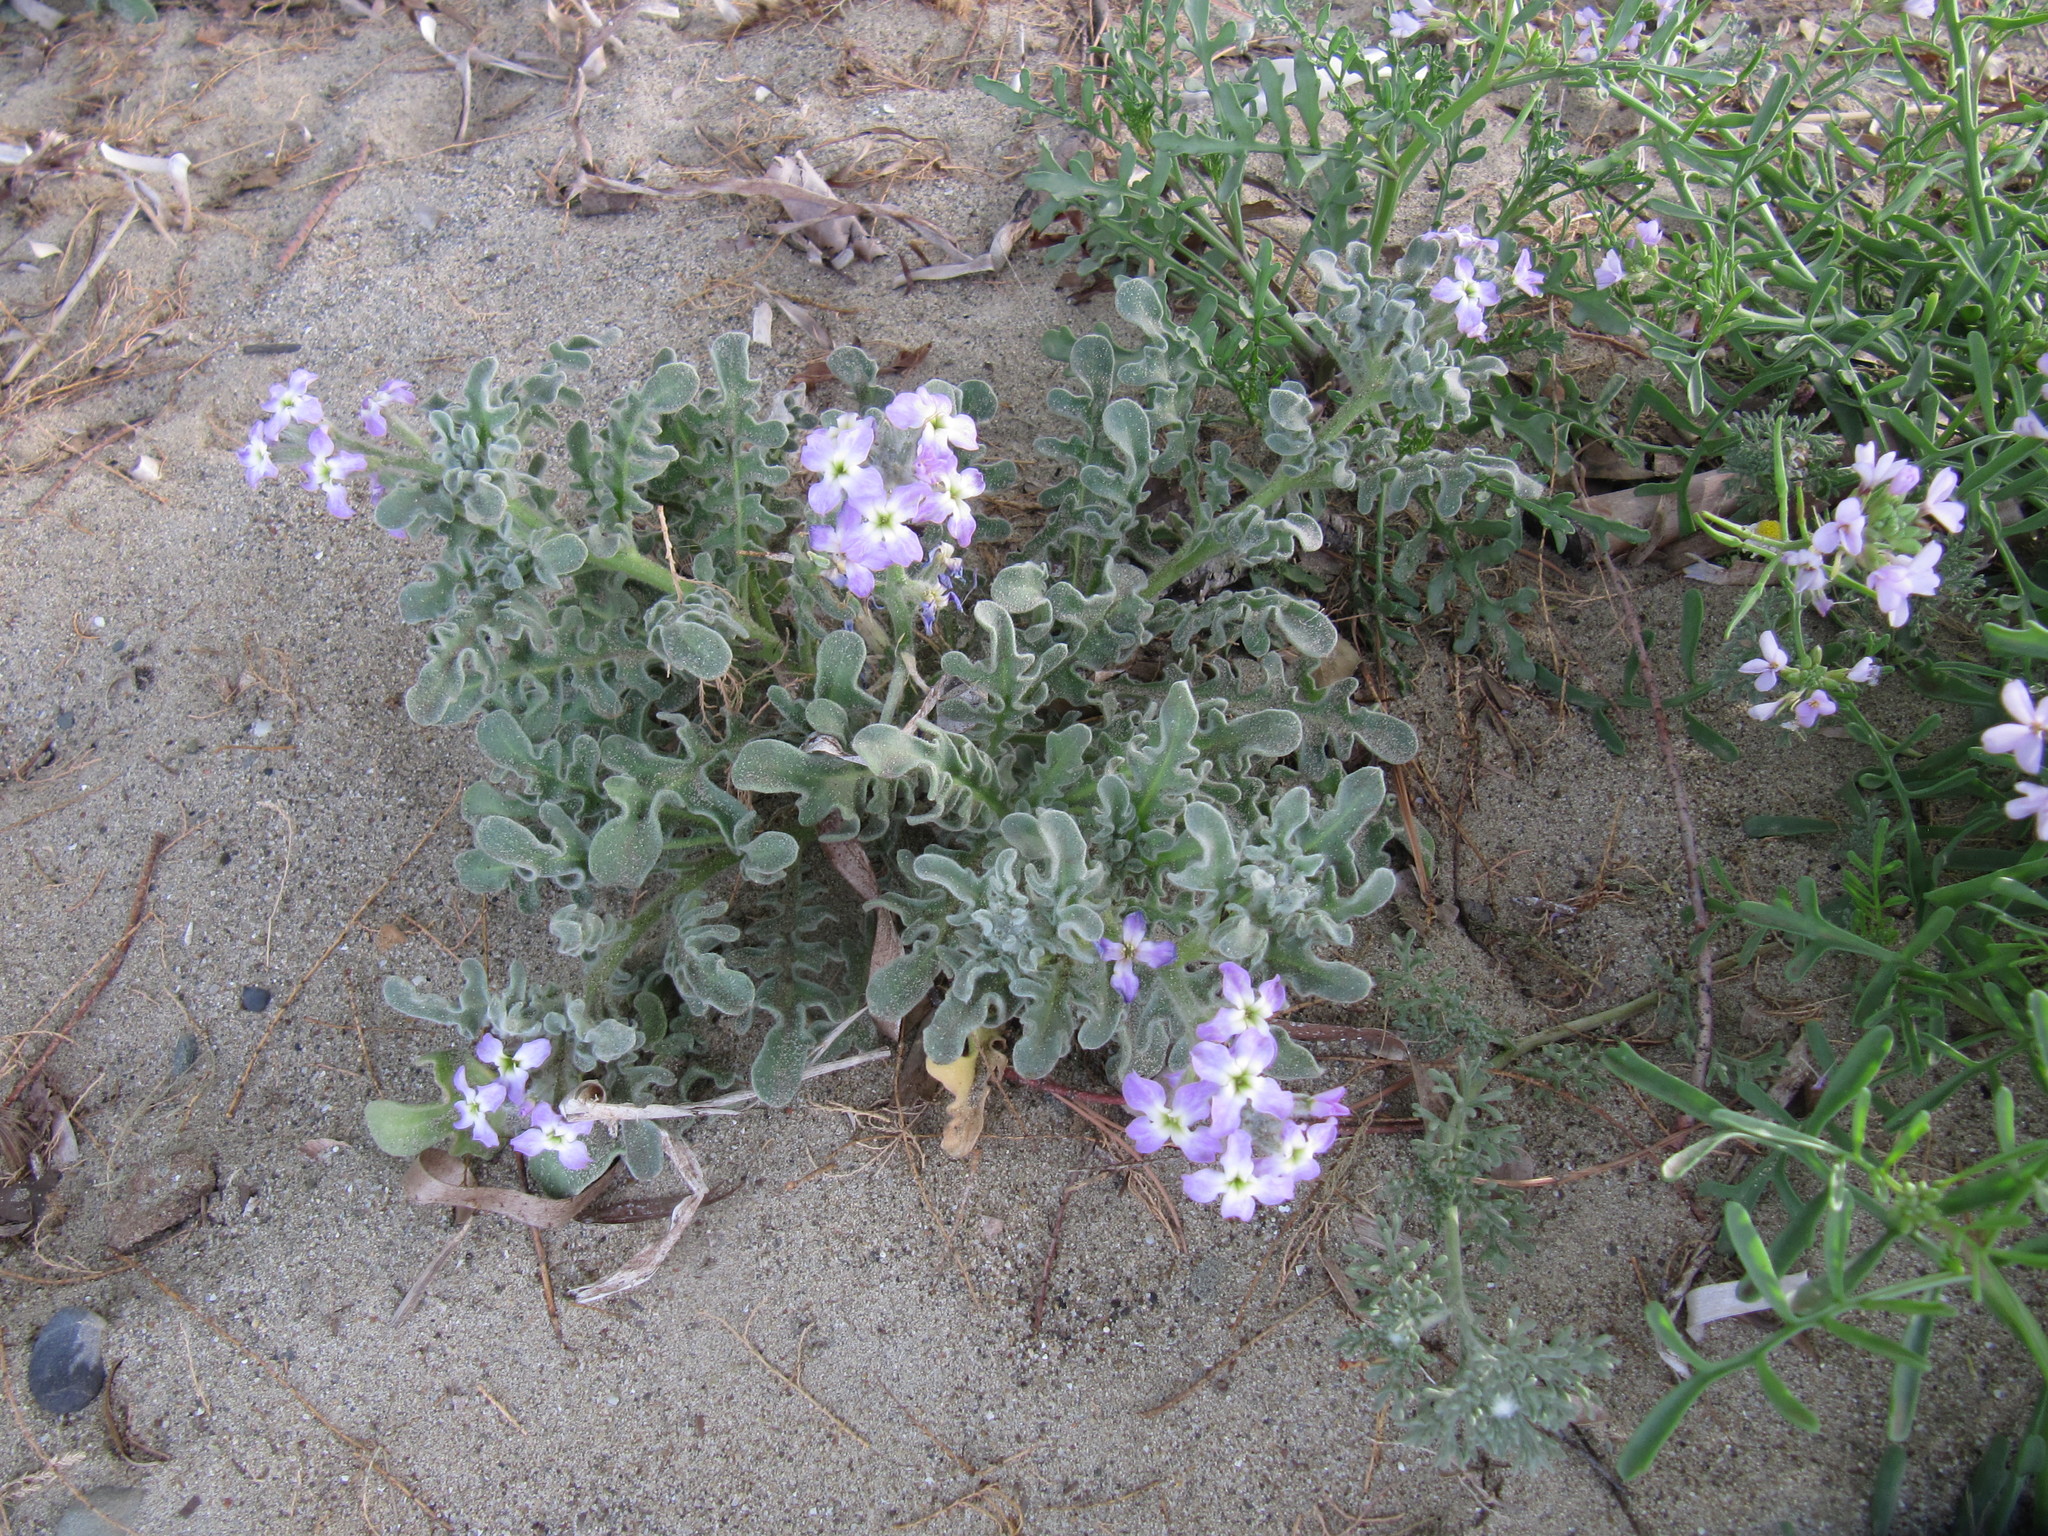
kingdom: Plantae
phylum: Tracheophyta
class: Magnoliopsida
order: Brassicales
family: Brassicaceae
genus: Matthiola
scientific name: Matthiola tricuspidata
